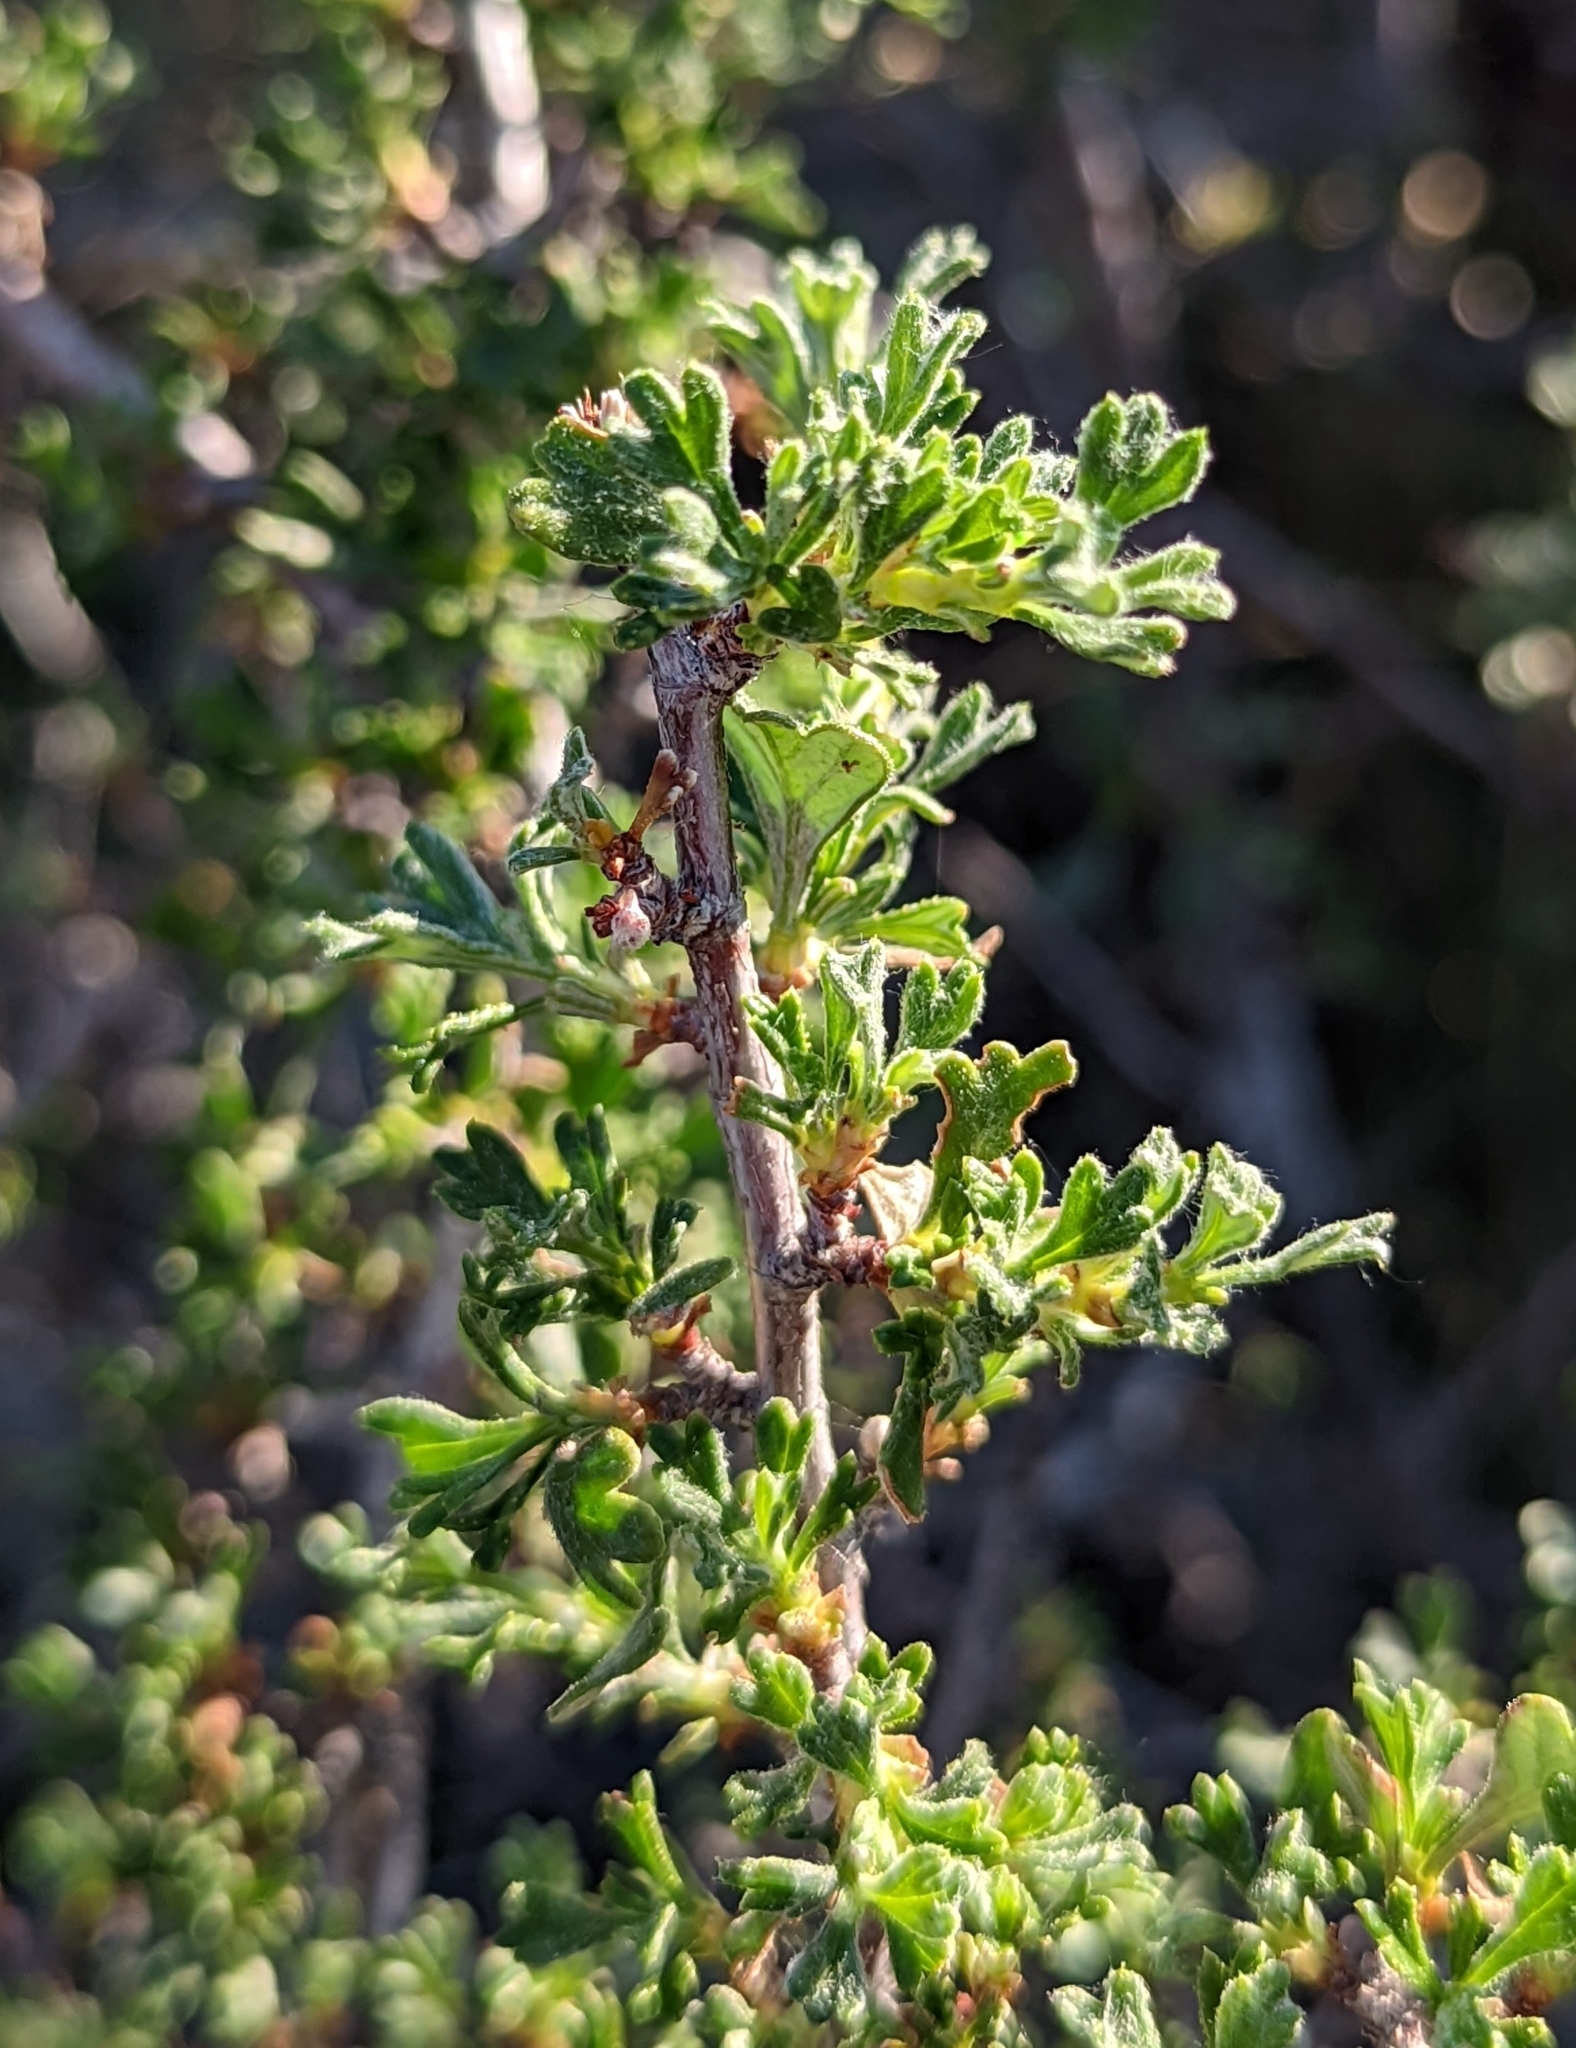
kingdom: Plantae
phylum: Tracheophyta
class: Magnoliopsida
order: Rosales
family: Rosaceae
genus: Purshia
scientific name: Purshia tridentata
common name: Antelope bitterbrush
